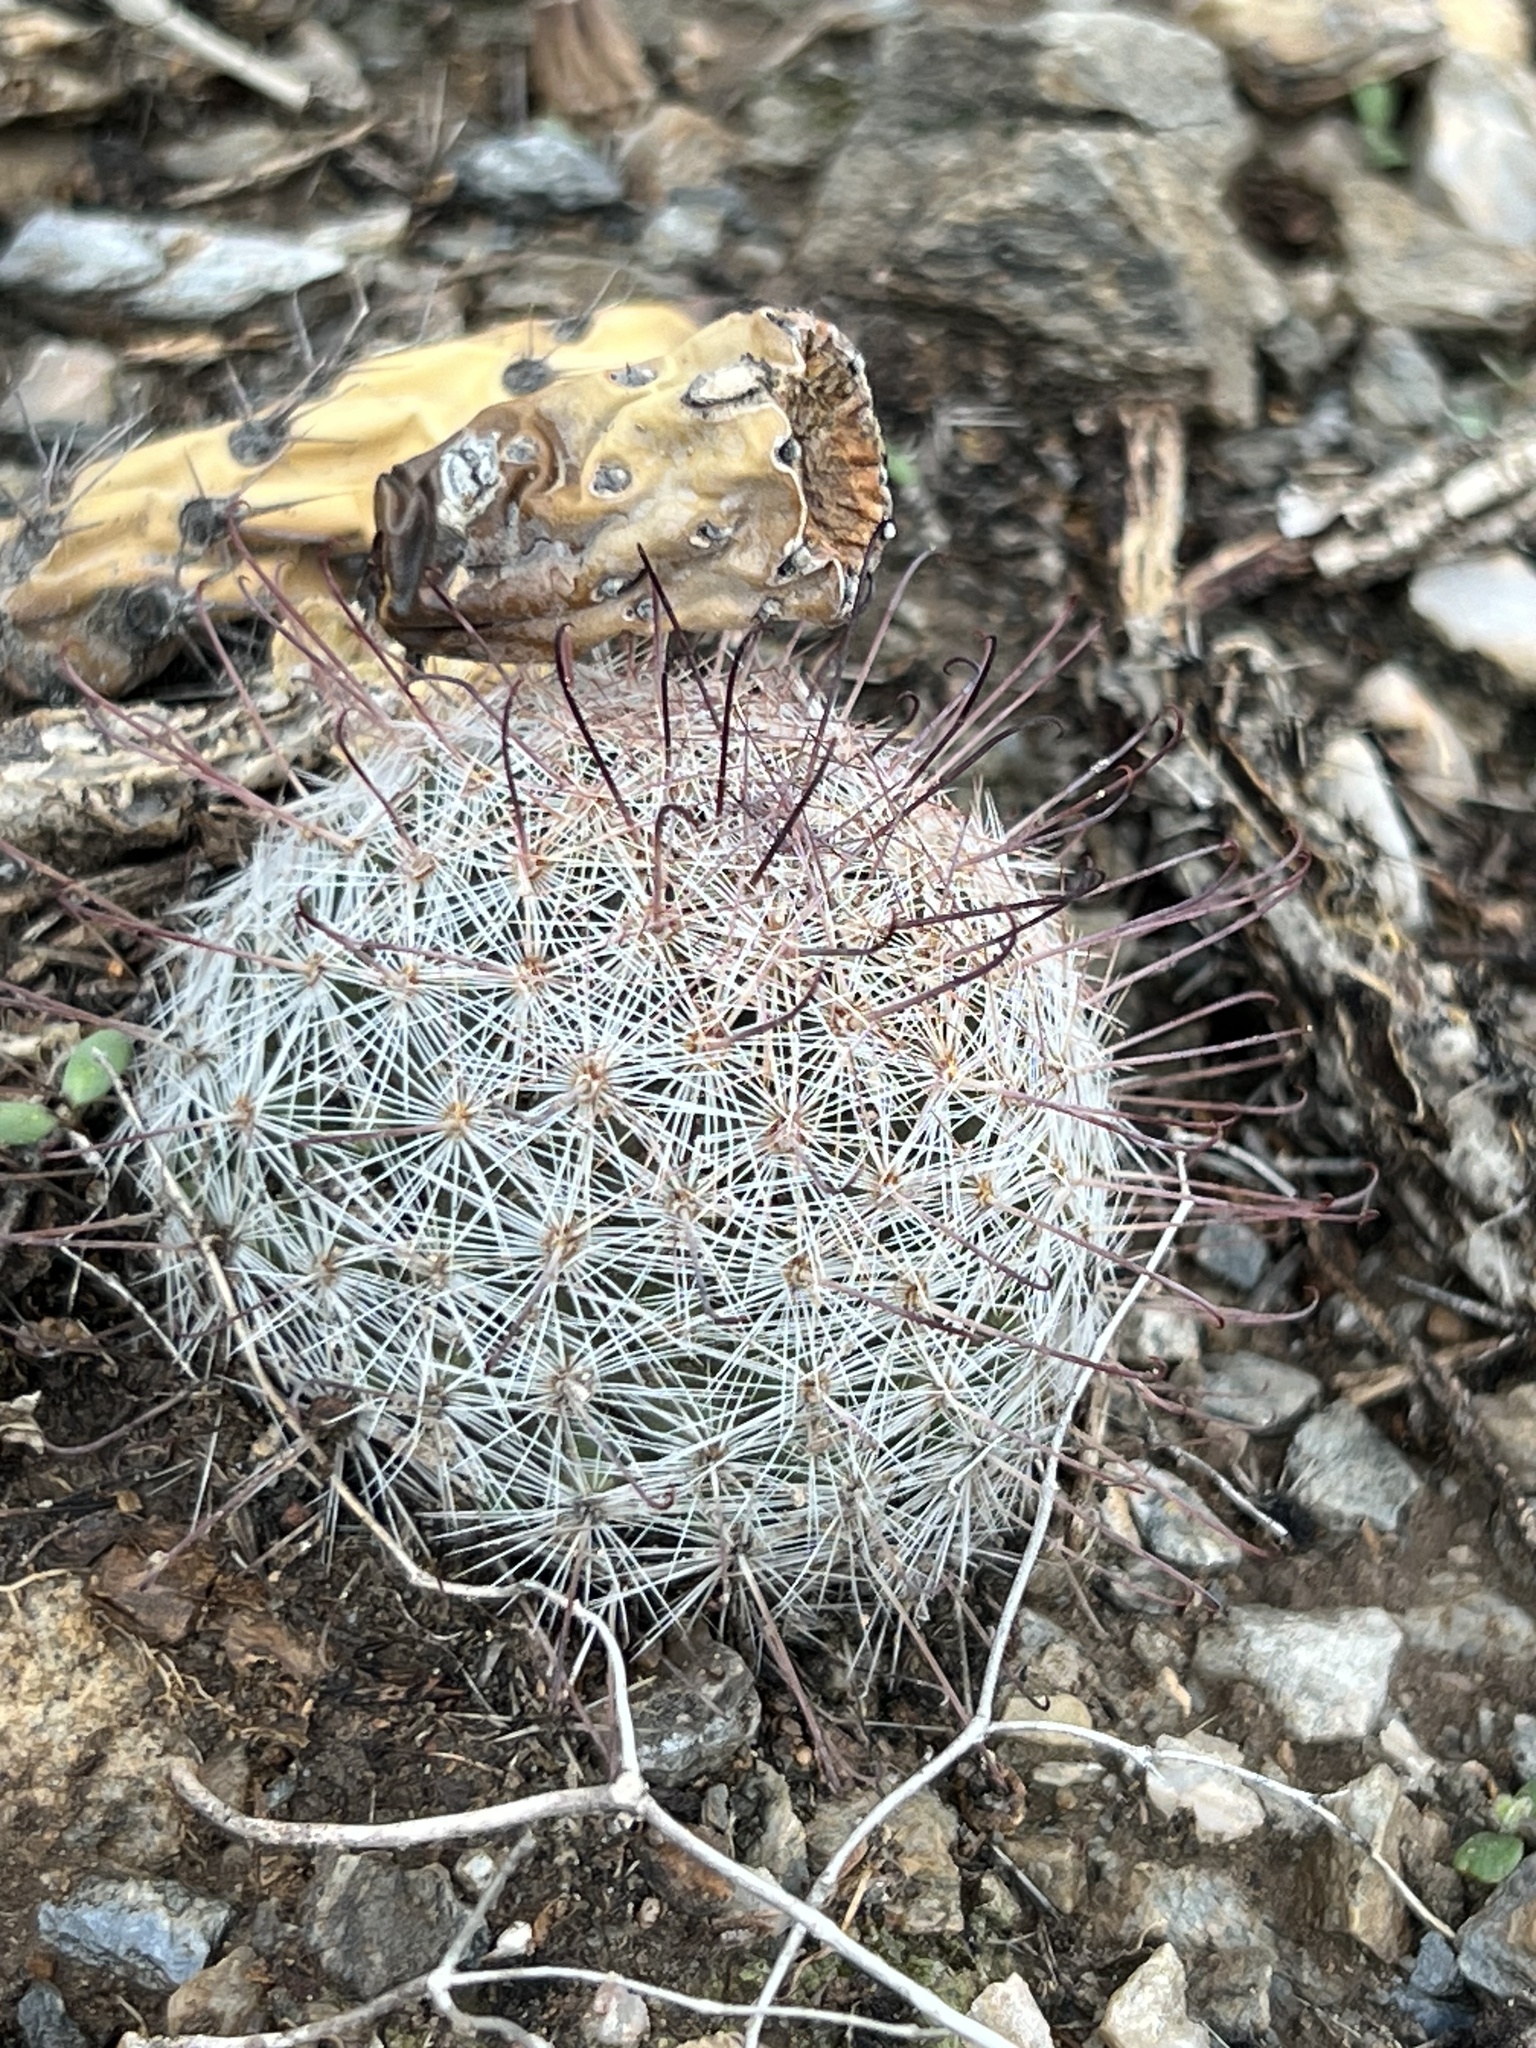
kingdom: Plantae
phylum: Tracheophyta
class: Magnoliopsida
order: Caryophyllales
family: Cactaceae
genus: Cochemiea
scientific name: Cochemiea grahamii
